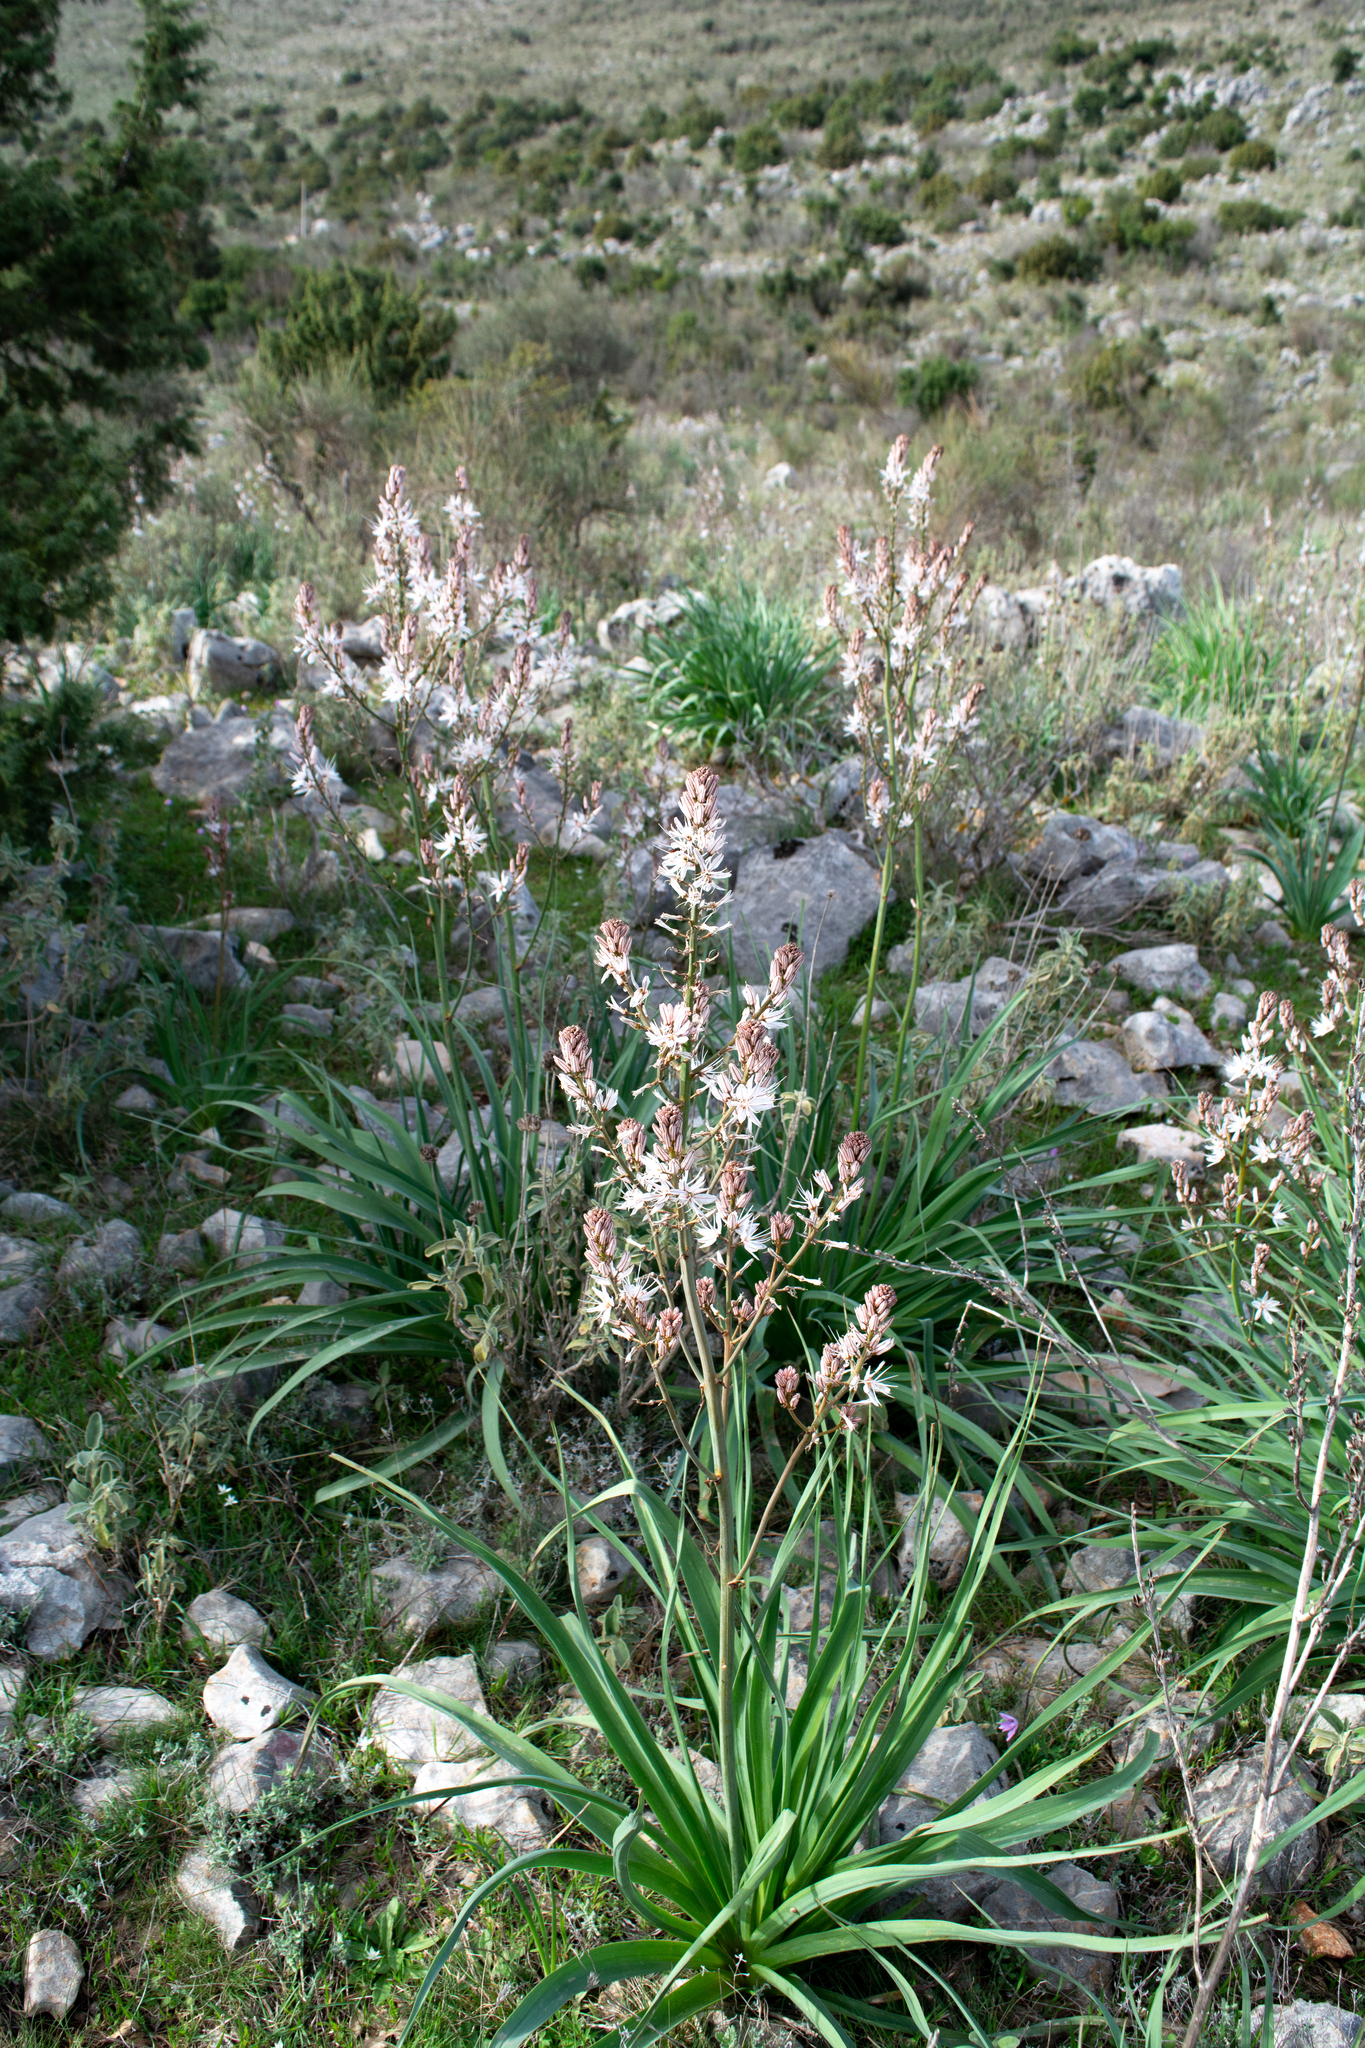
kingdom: Plantae
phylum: Tracheophyta
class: Liliopsida
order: Asparagales
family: Asphodelaceae
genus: Asphodelus
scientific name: Asphodelus ramosus
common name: Silverrod
